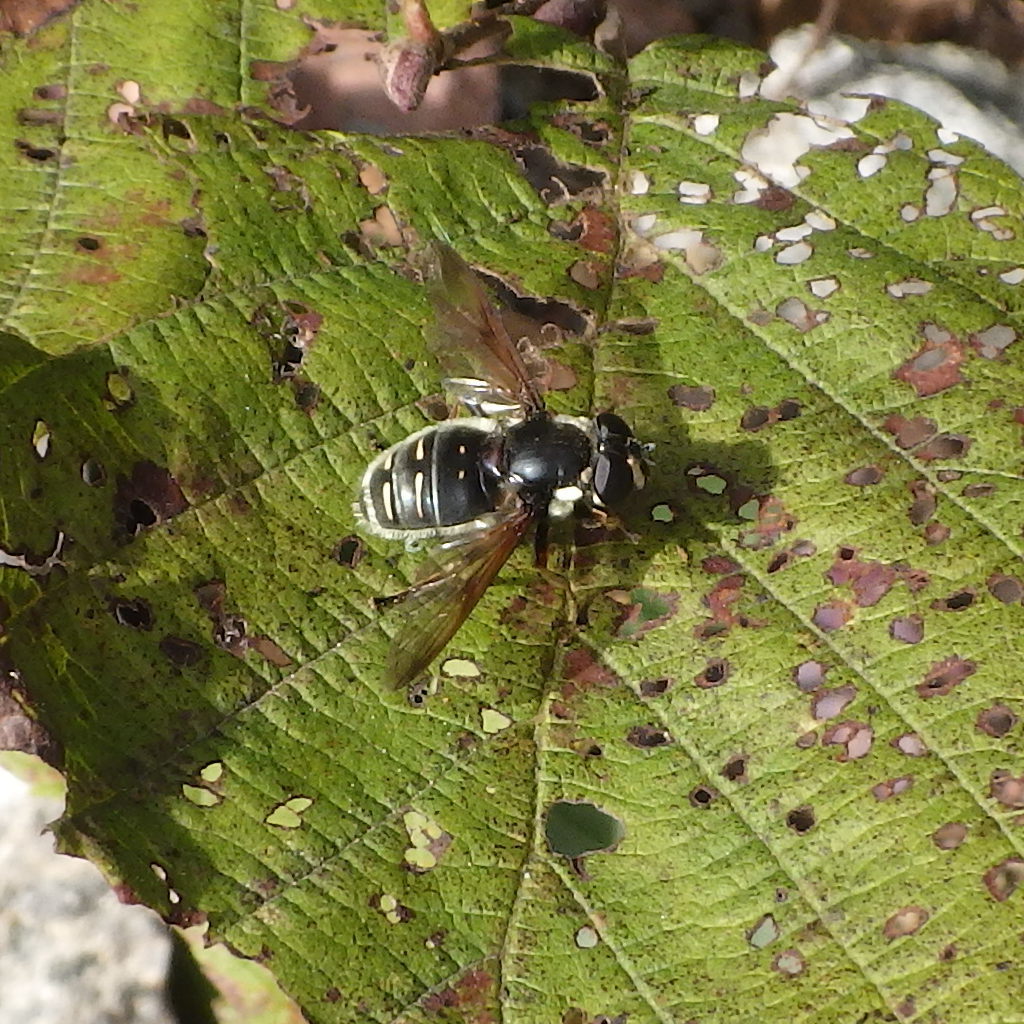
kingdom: Animalia
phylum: Arthropoda
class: Insecta
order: Diptera
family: Syrphidae
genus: Sericomyia
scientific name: Sericomyia militaris
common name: Narrow-banded pond fly
